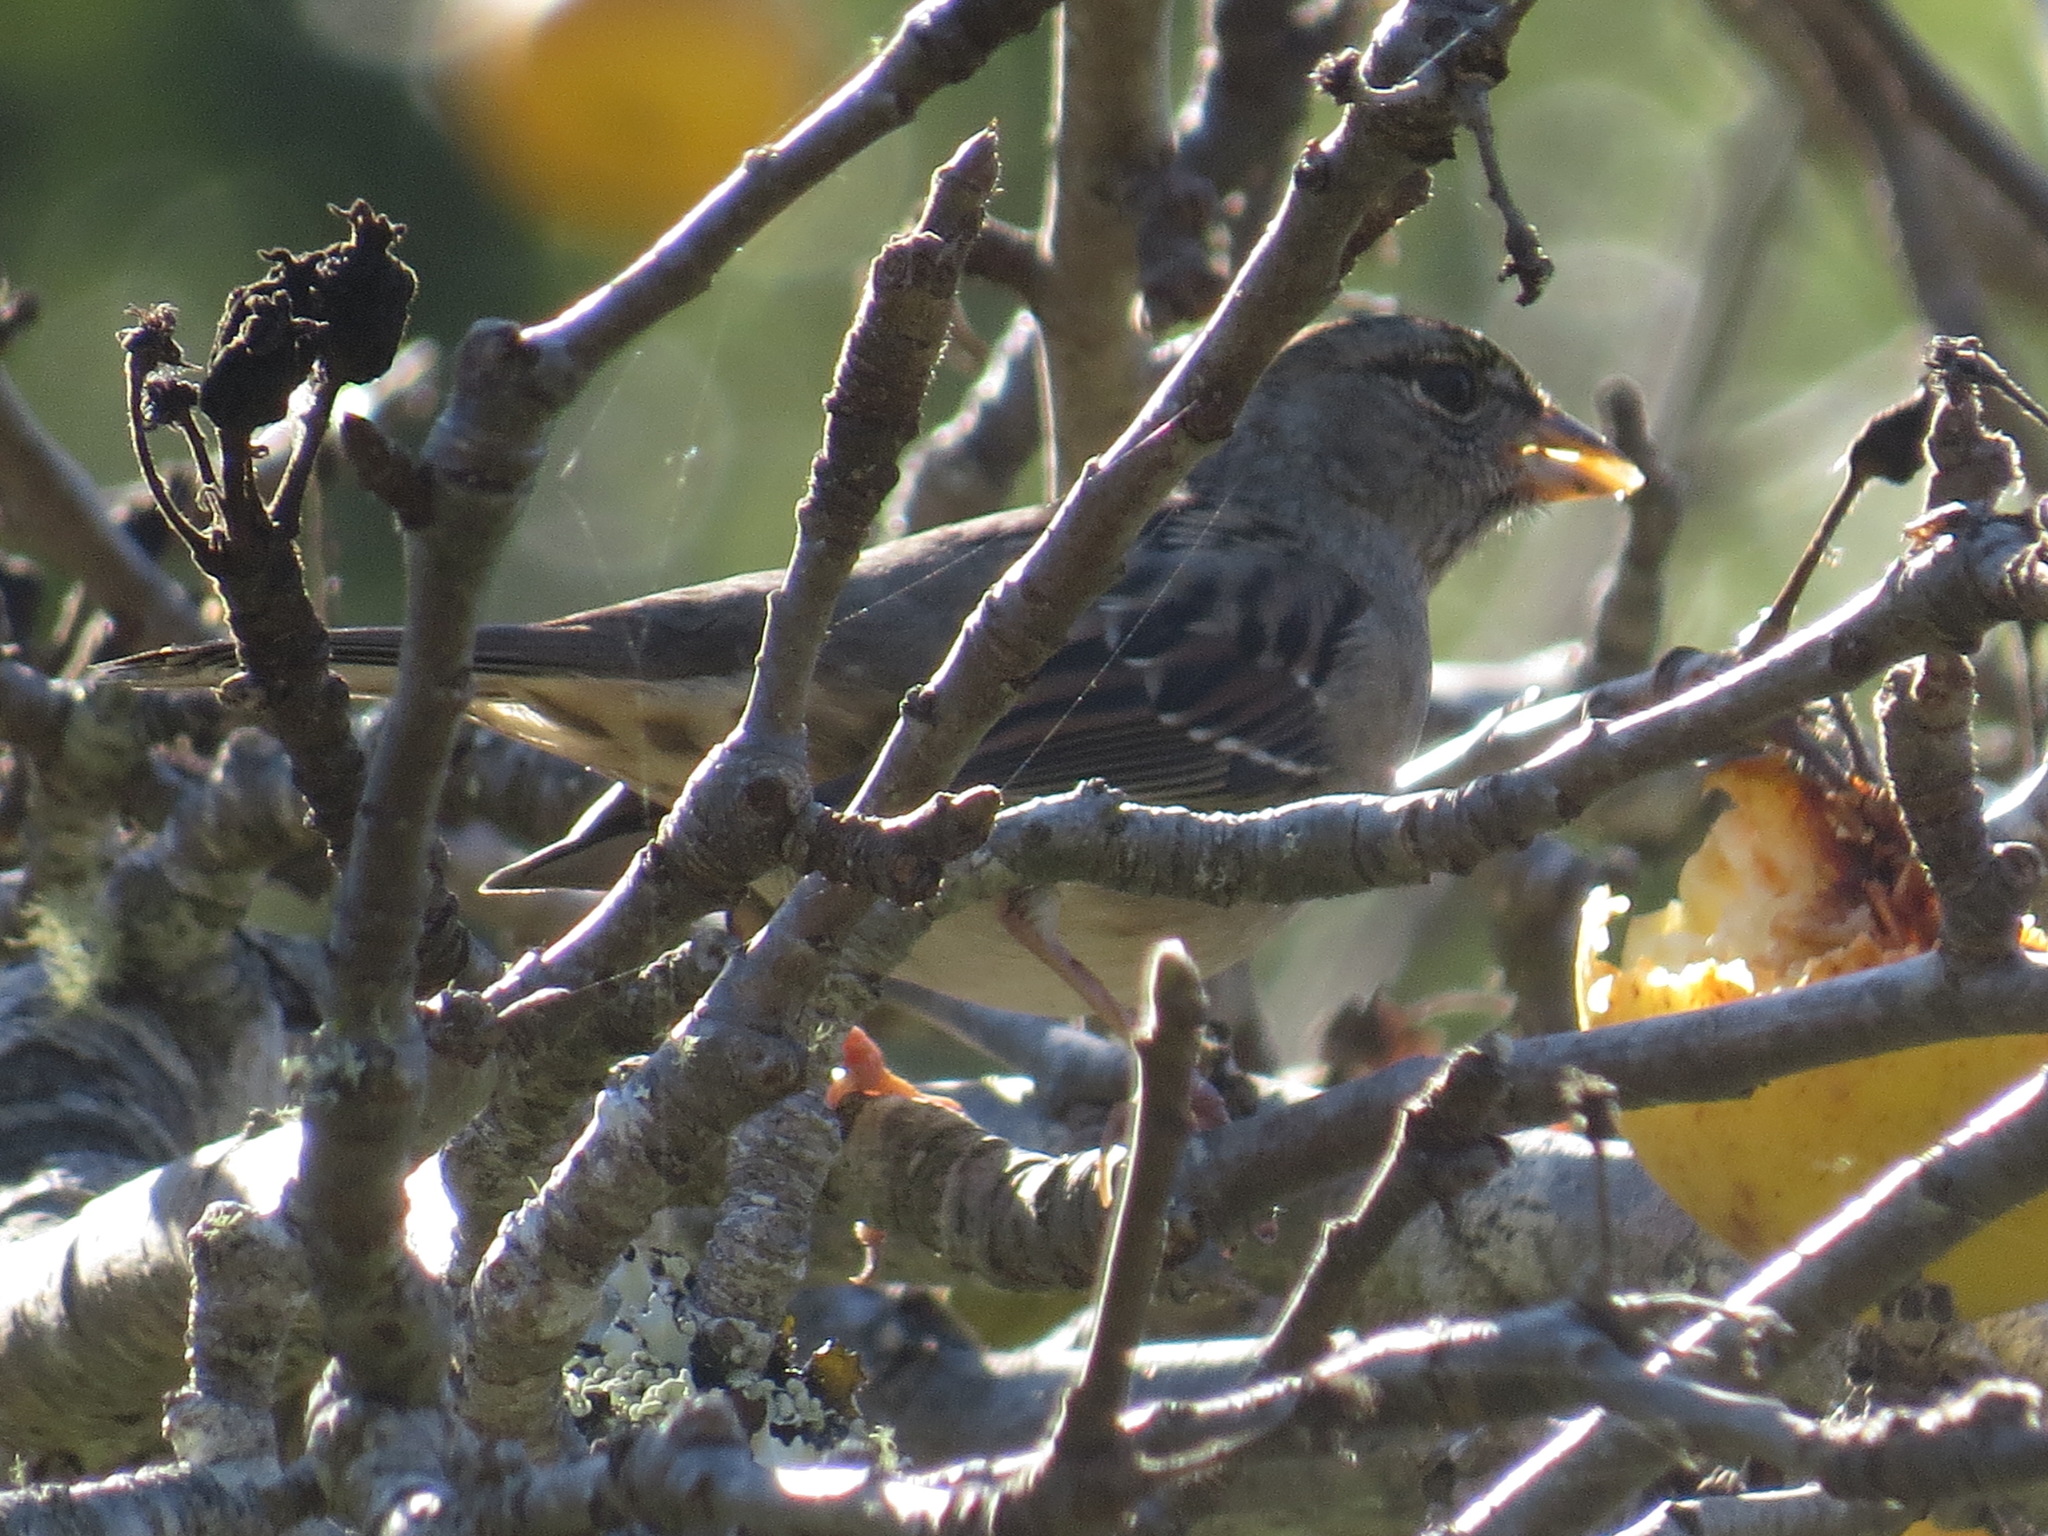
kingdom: Animalia
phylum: Chordata
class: Aves
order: Passeriformes
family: Passerellidae
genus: Zonotrichia
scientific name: Zonotrichia atricapilla
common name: Golden-crowned sparrow
